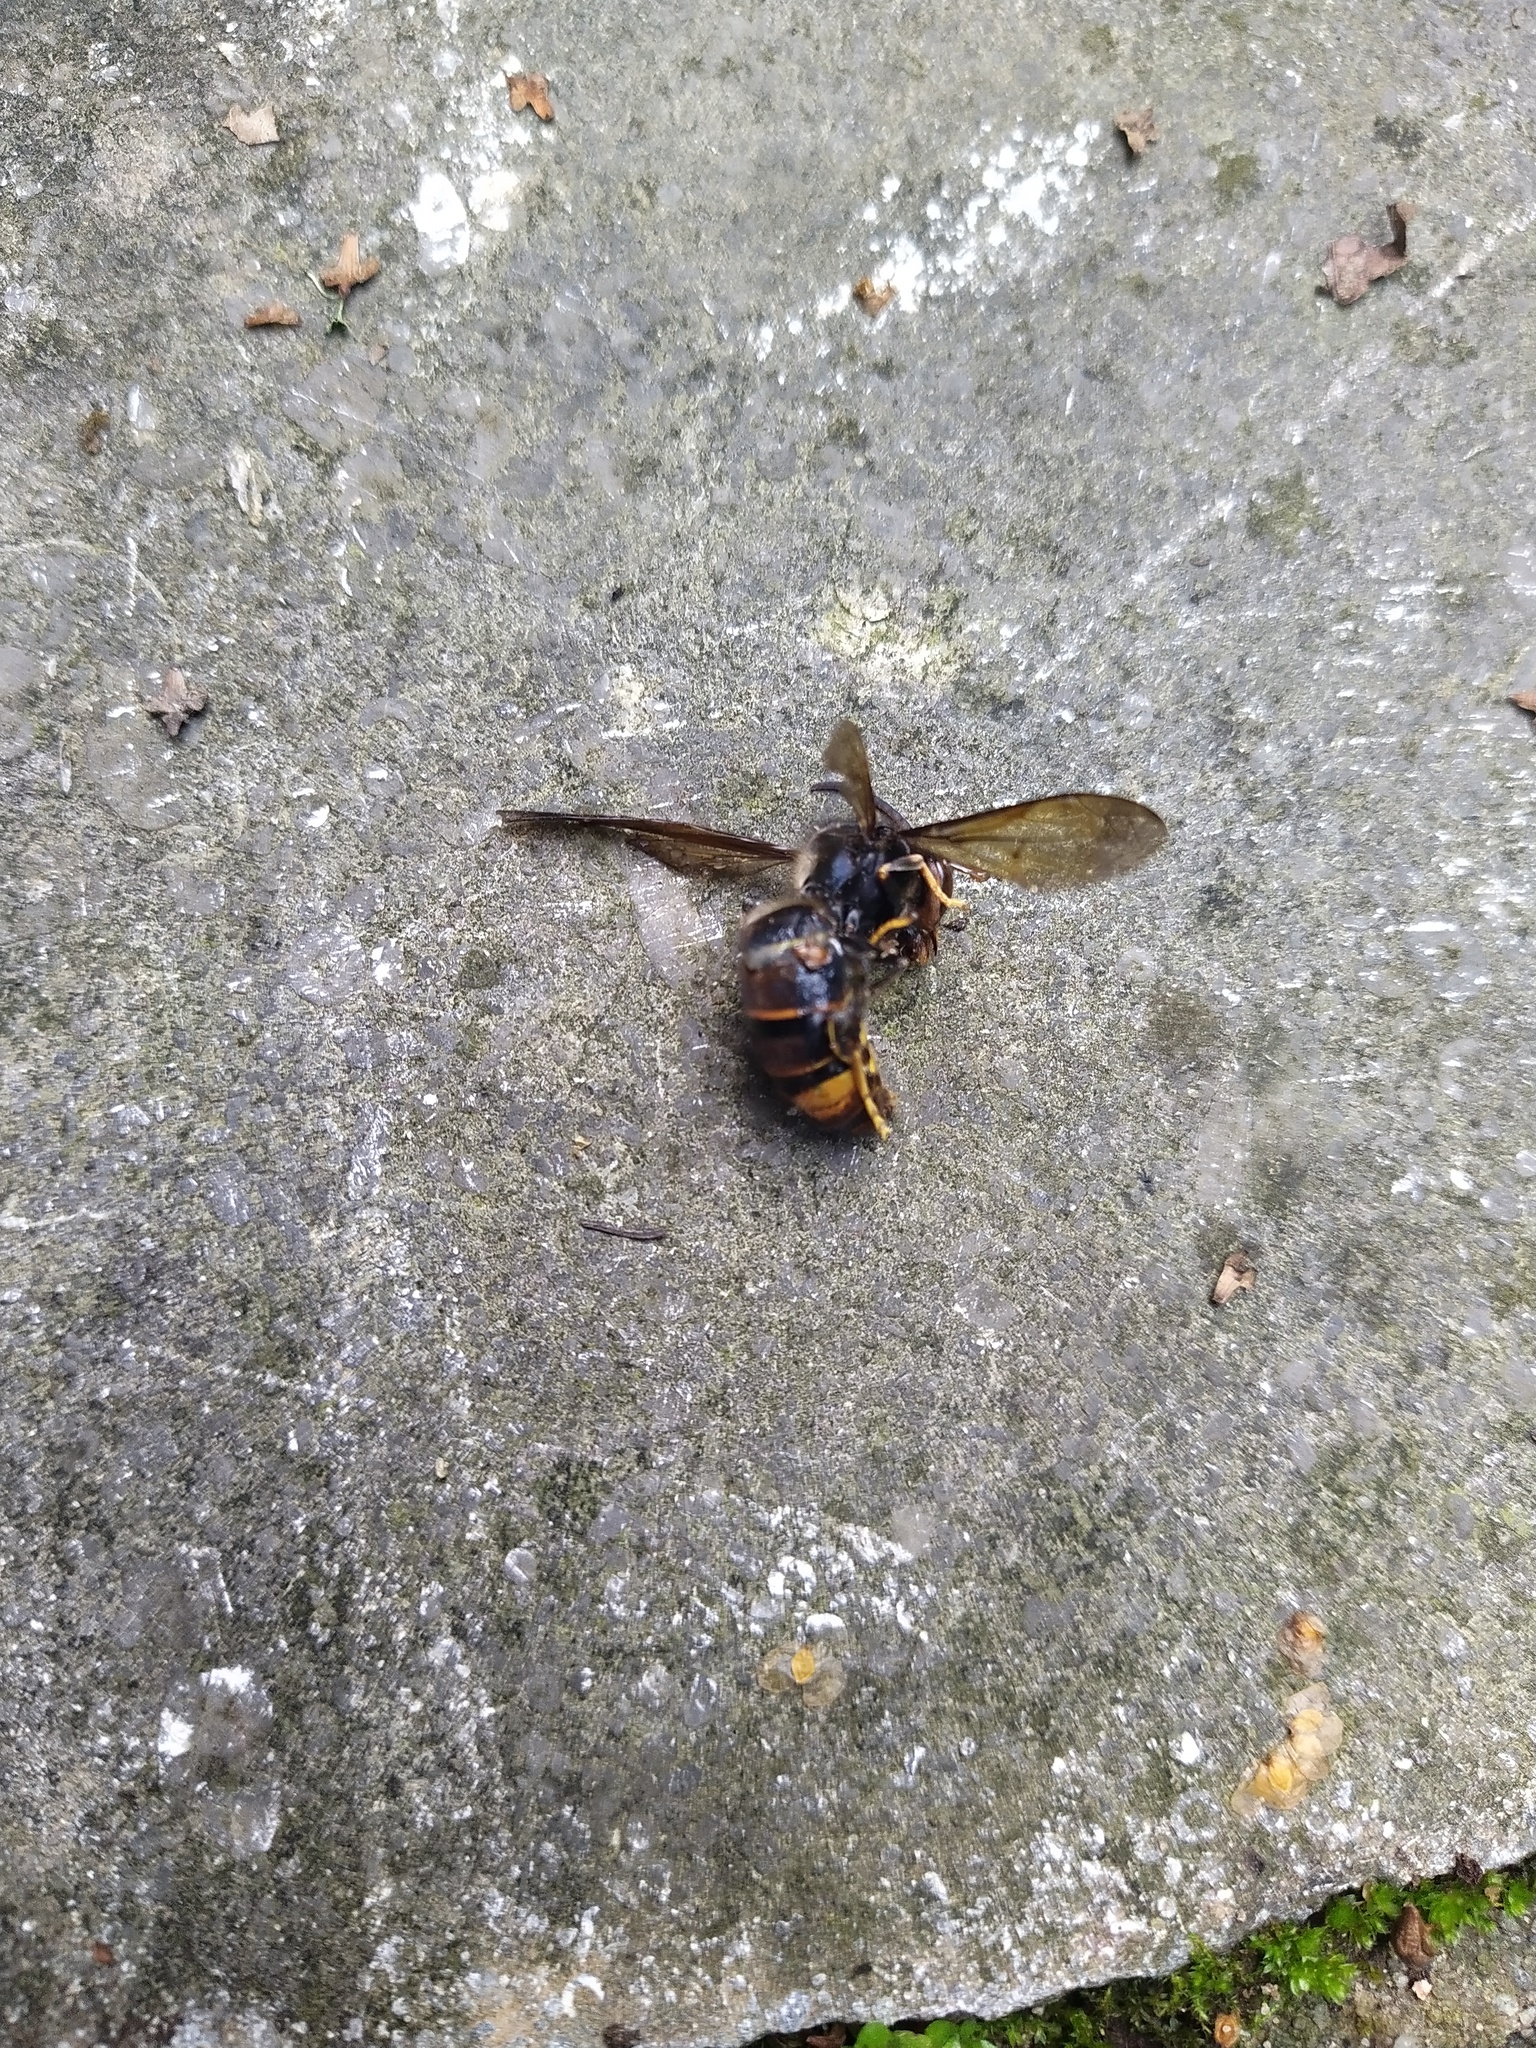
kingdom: Animalia
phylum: Arthropoda
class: Insecta
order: Hymenoptera
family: Vespidae
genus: Vespa
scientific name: Vespa velutina
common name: Asian hornet
